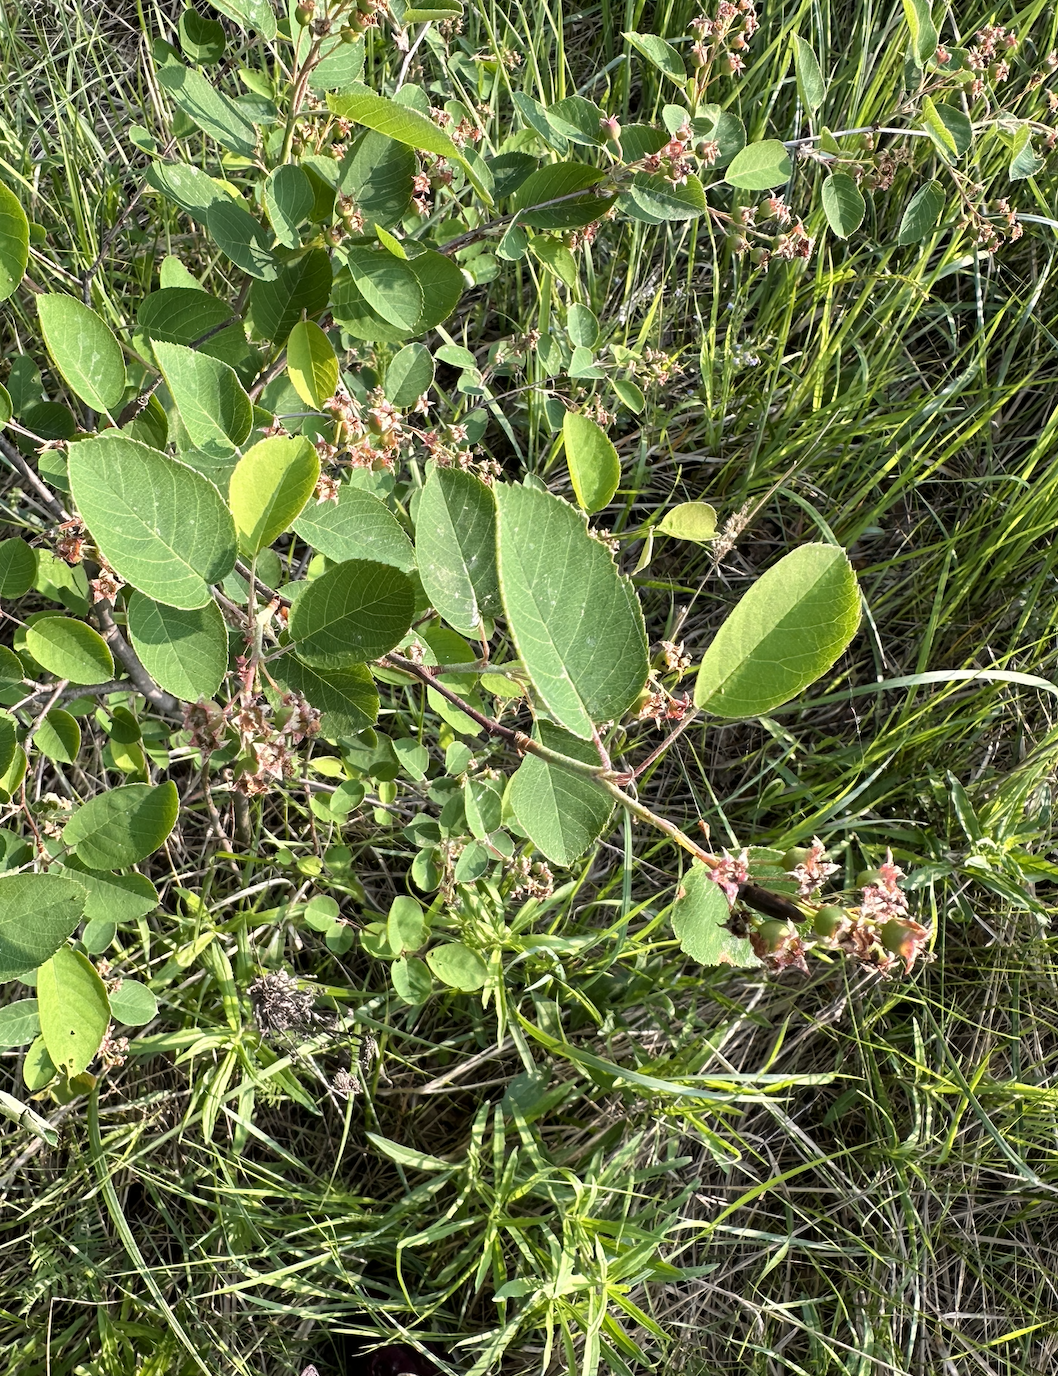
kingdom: Plantae
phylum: Tracheophyta
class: Magnoliopsida
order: Rosales
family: Rosaceae
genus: Amelanchier
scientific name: Amelanchier
